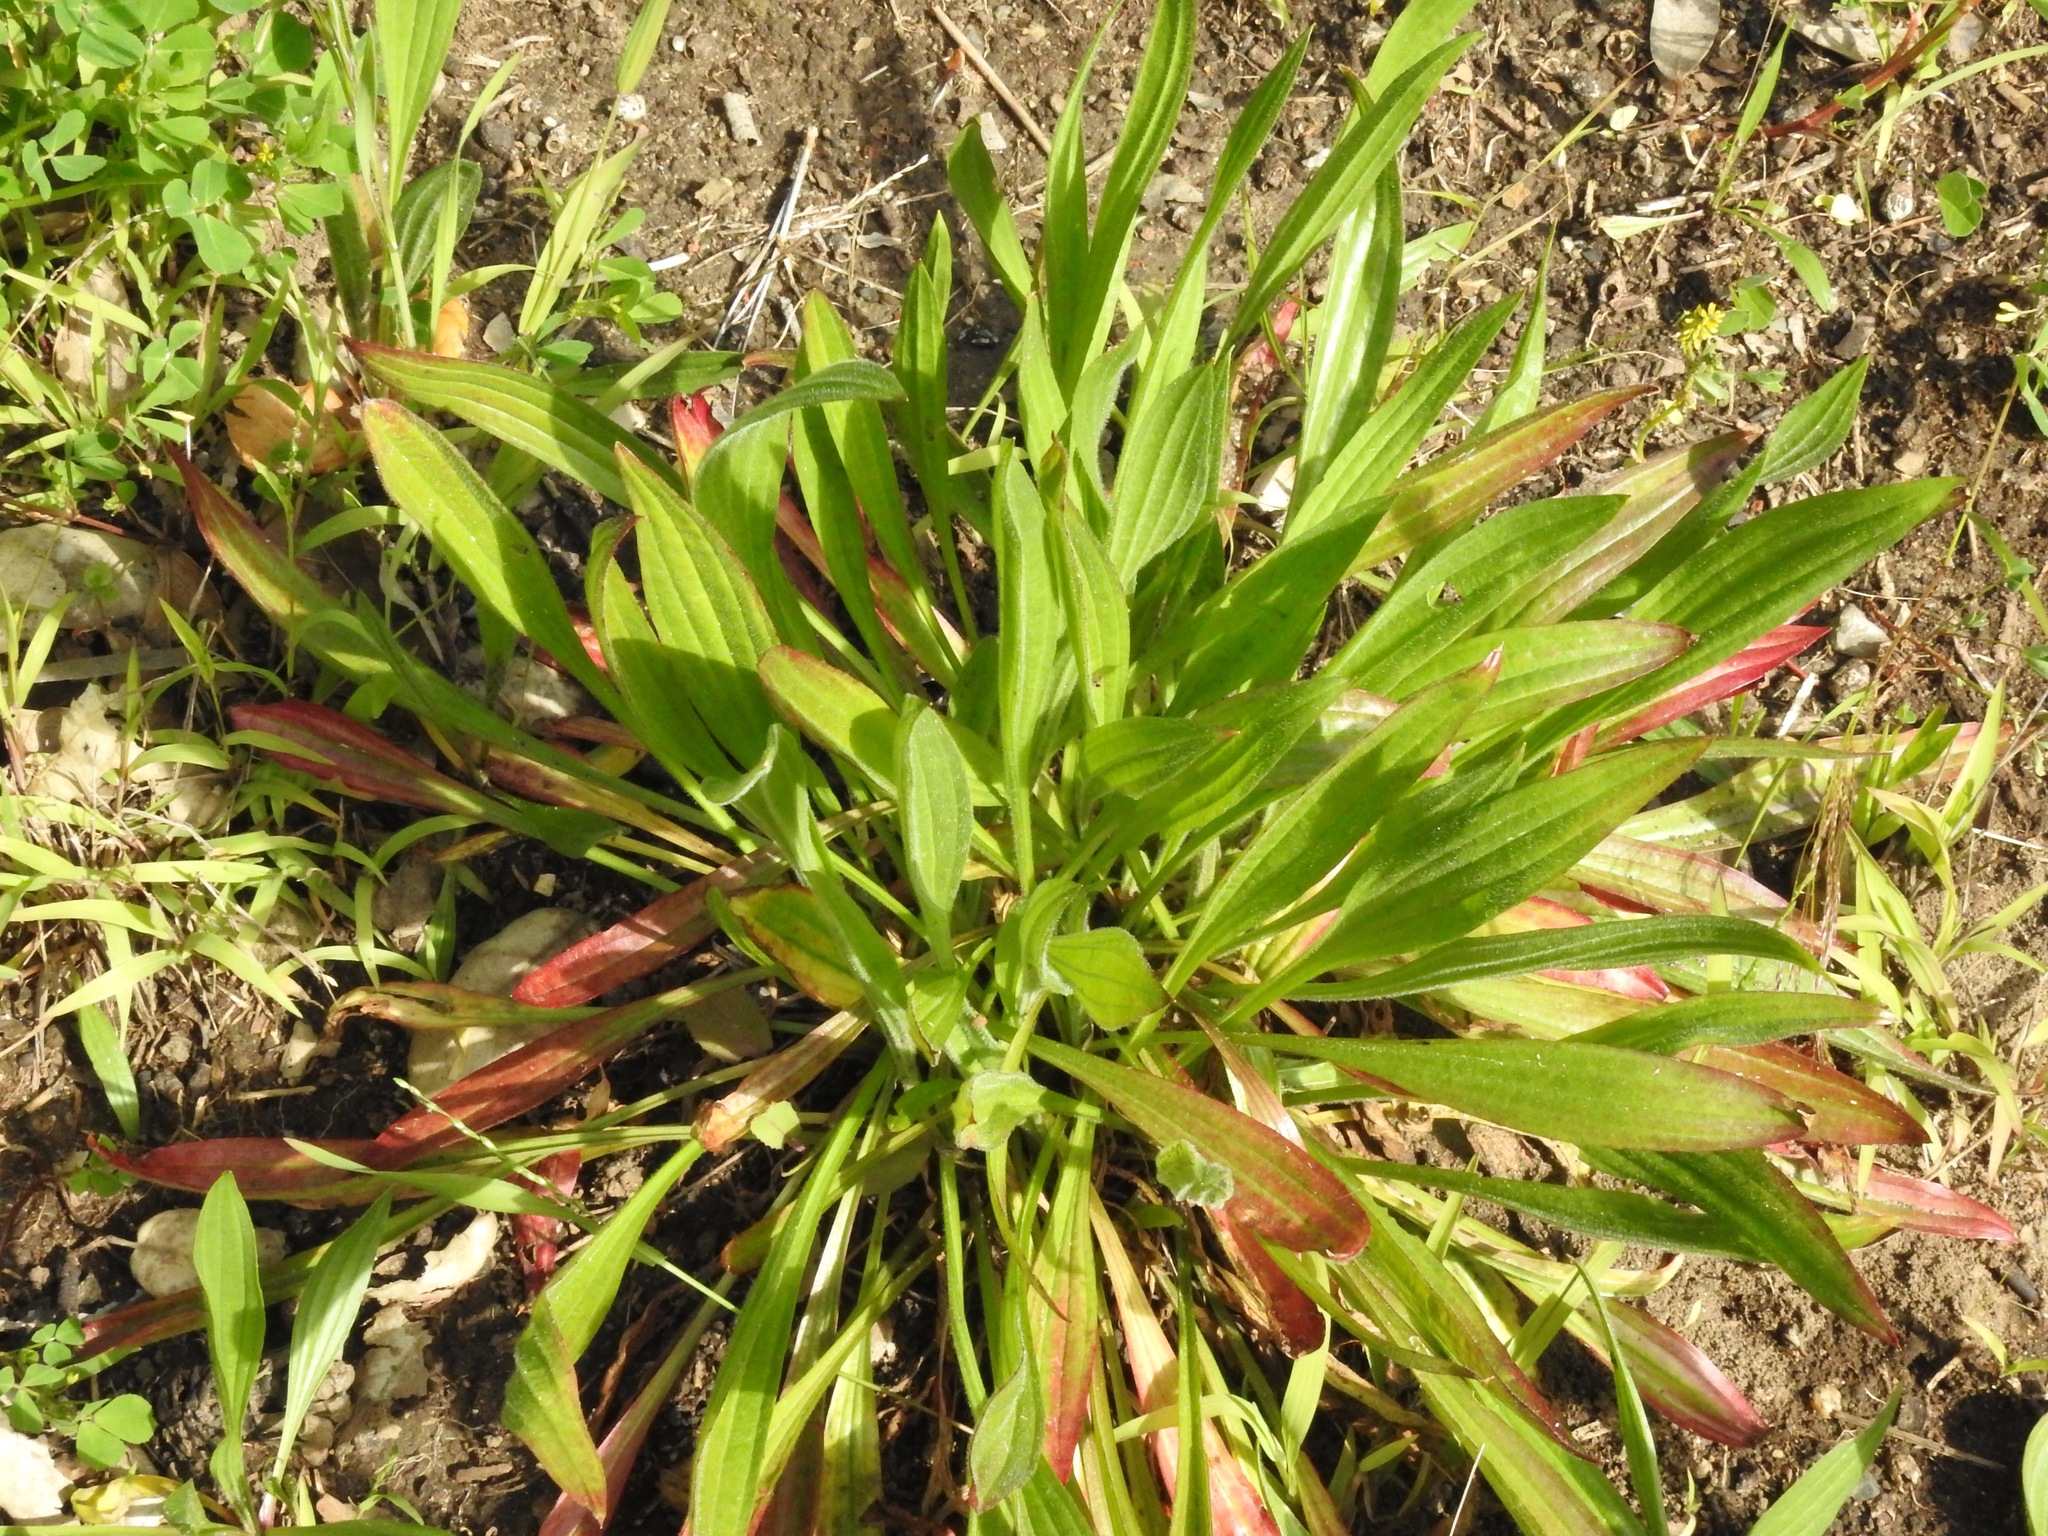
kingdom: Plantae
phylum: Tracheophyta
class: Magnoliopsida
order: Lamiales
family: Plantaginaceae
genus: Plantago
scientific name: Plantago lanceolata
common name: Ribwort plantain
